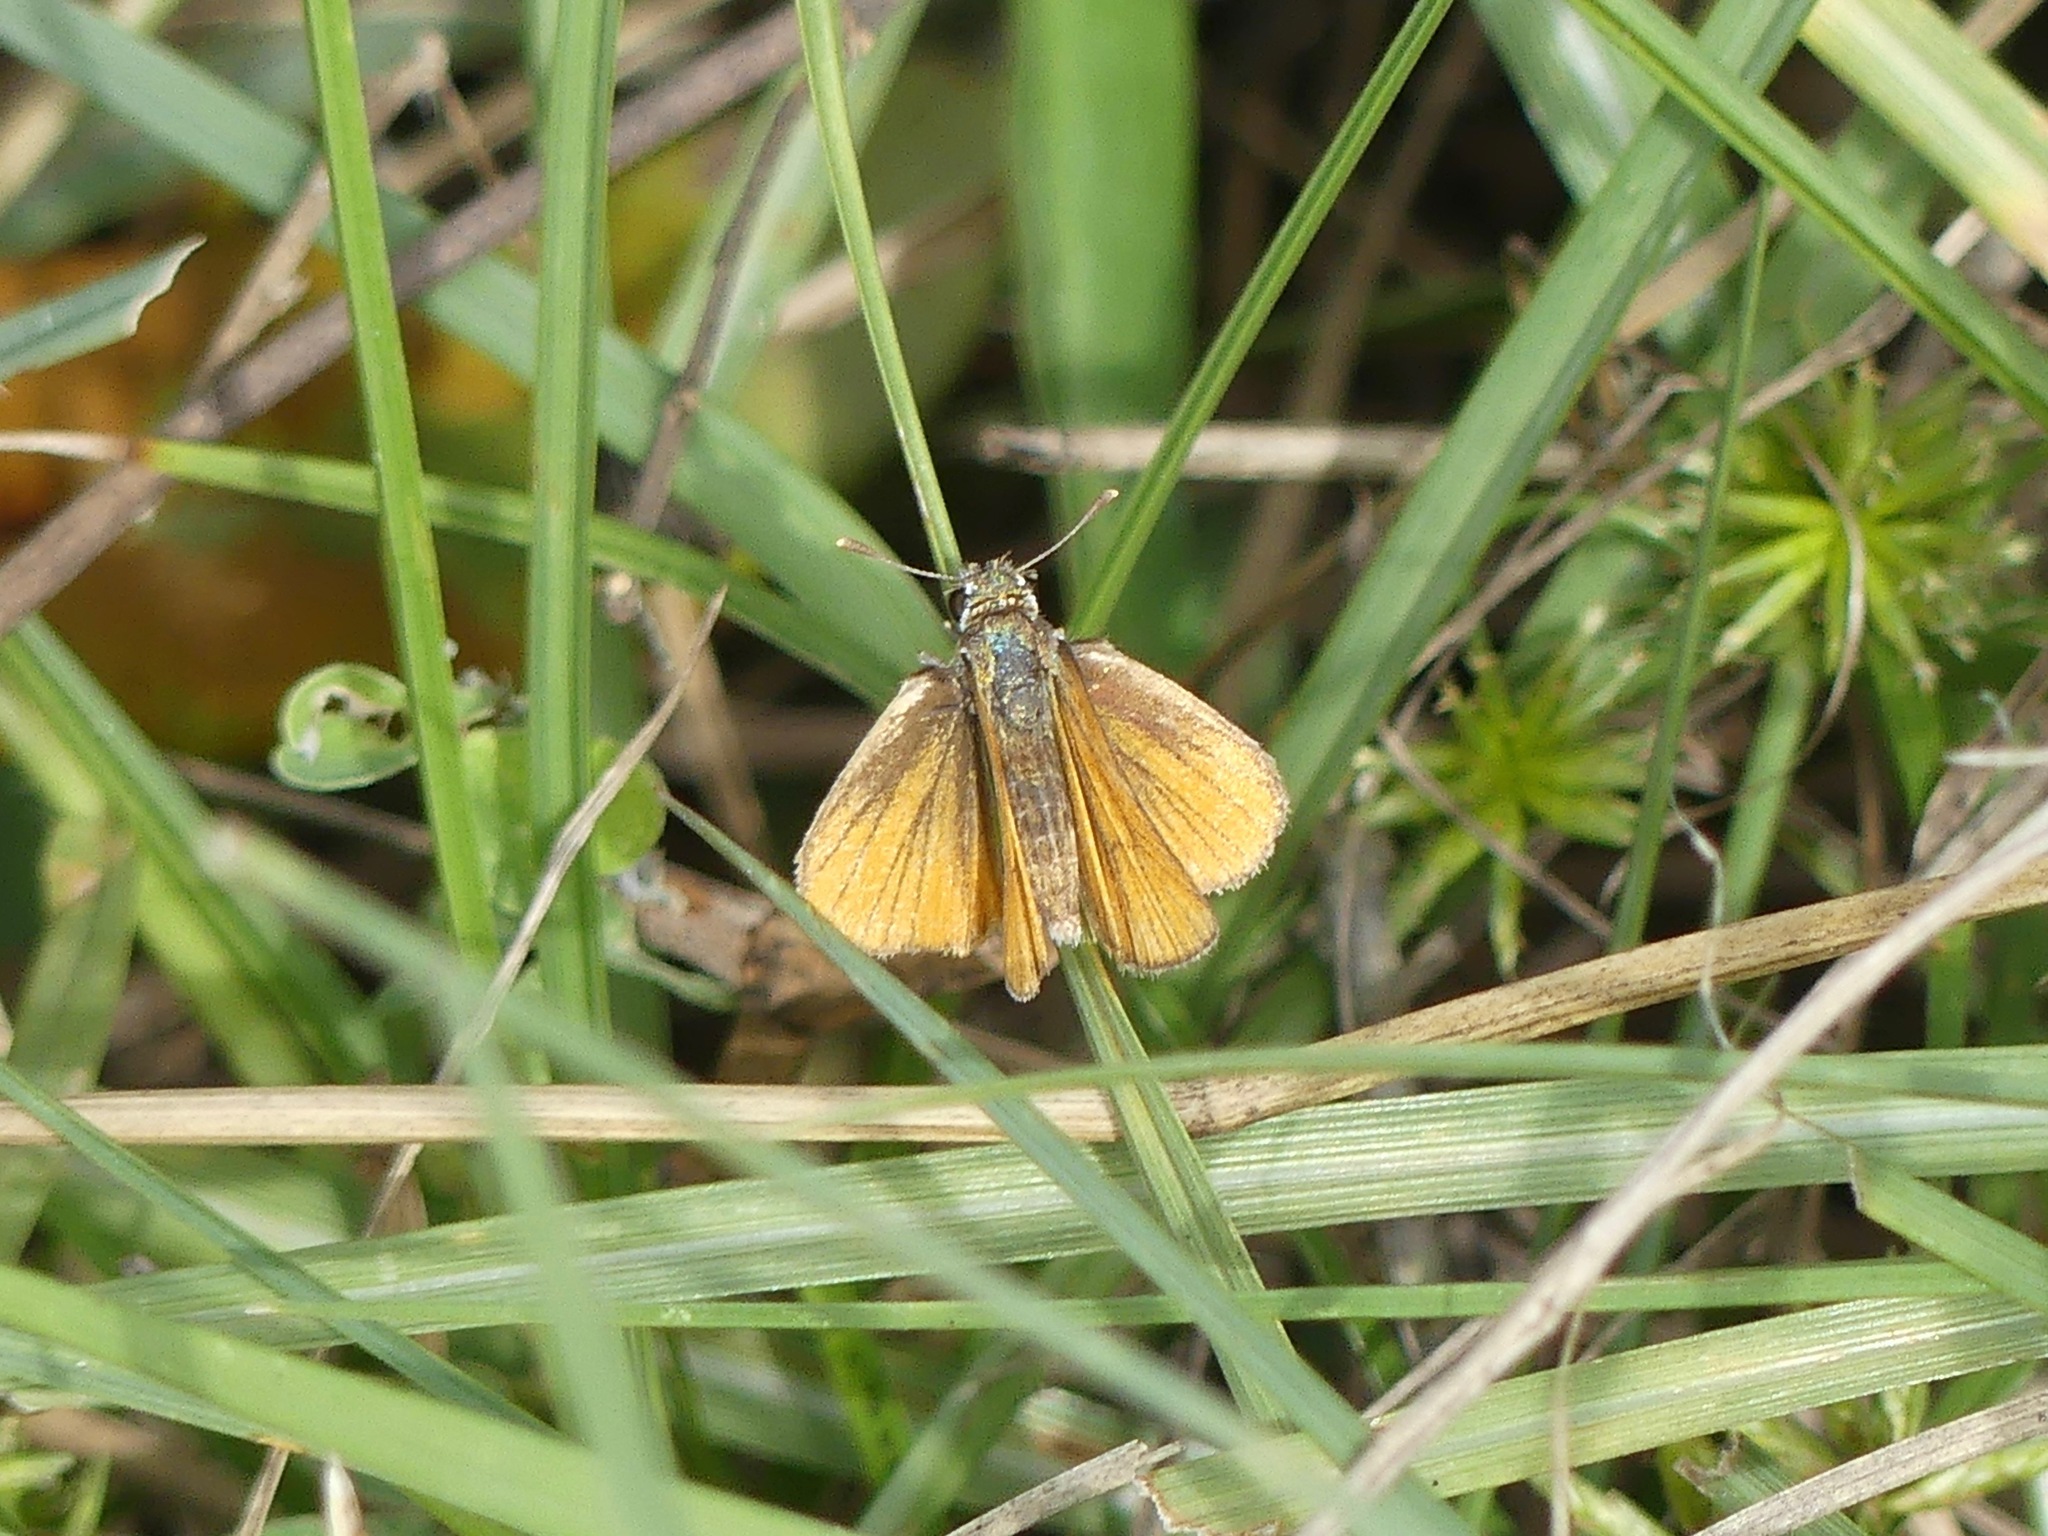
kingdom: Animalia
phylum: Arthropoda
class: Insecta
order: Lepidoptera
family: Hesperiidae
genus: Copaeodes
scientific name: Copaeodes minima
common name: Southern skipperling
